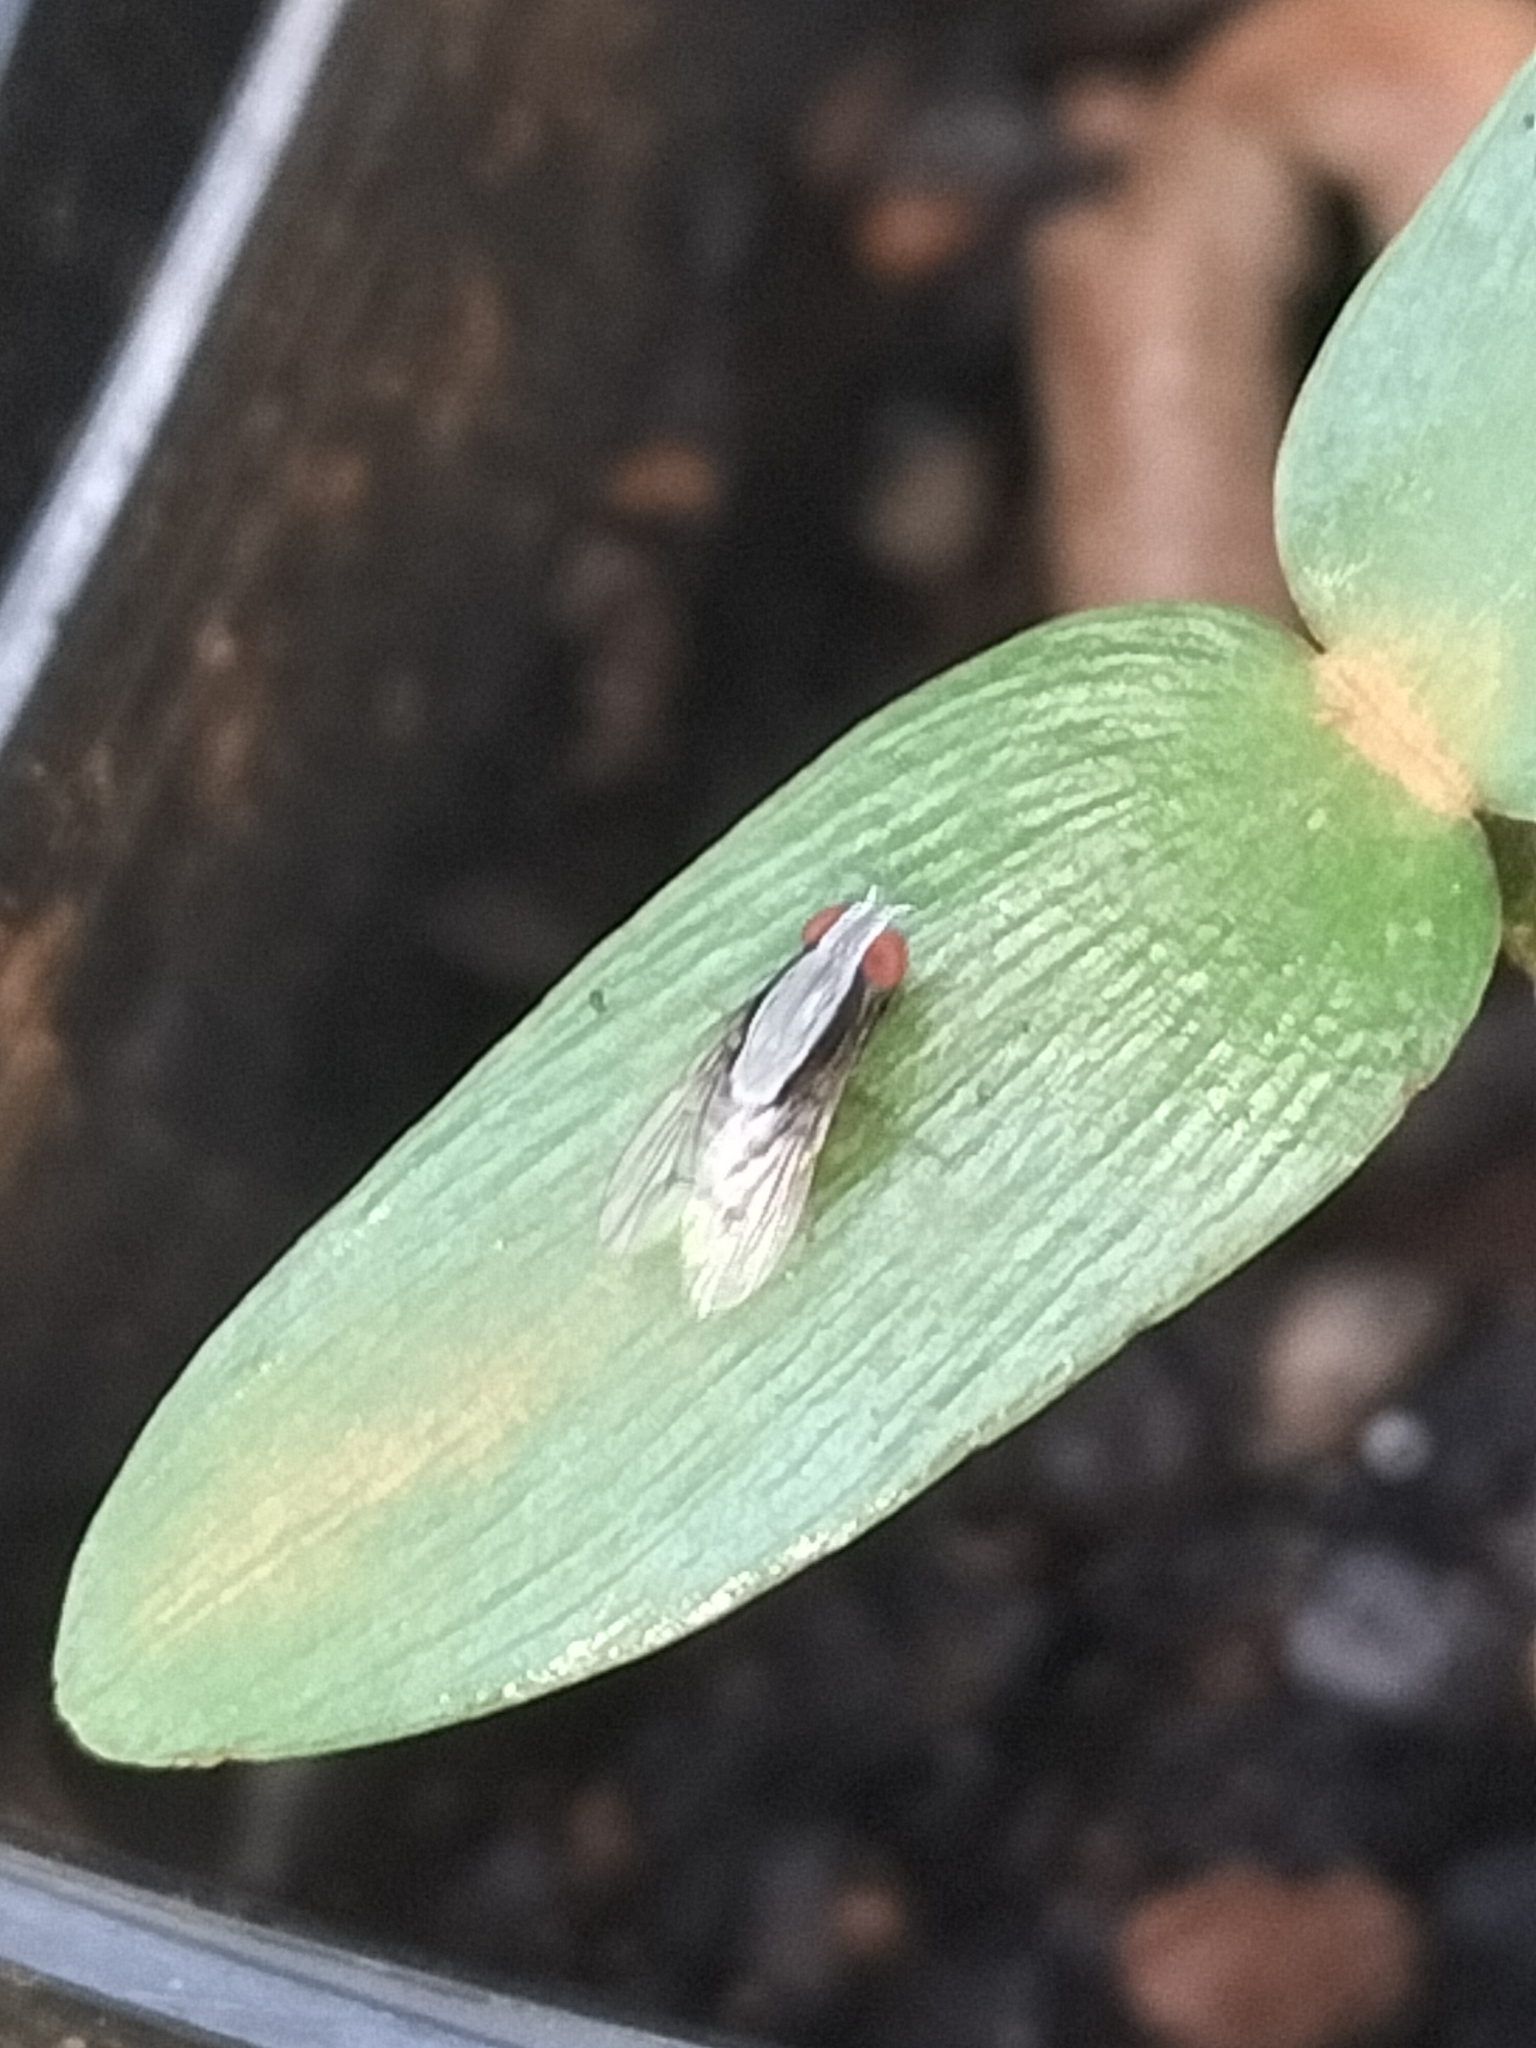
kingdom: Animalia
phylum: Arthropoda
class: Insecta
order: Diptera
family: Lauxaniidae
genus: Homoneura
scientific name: Homoneura discoglauca
